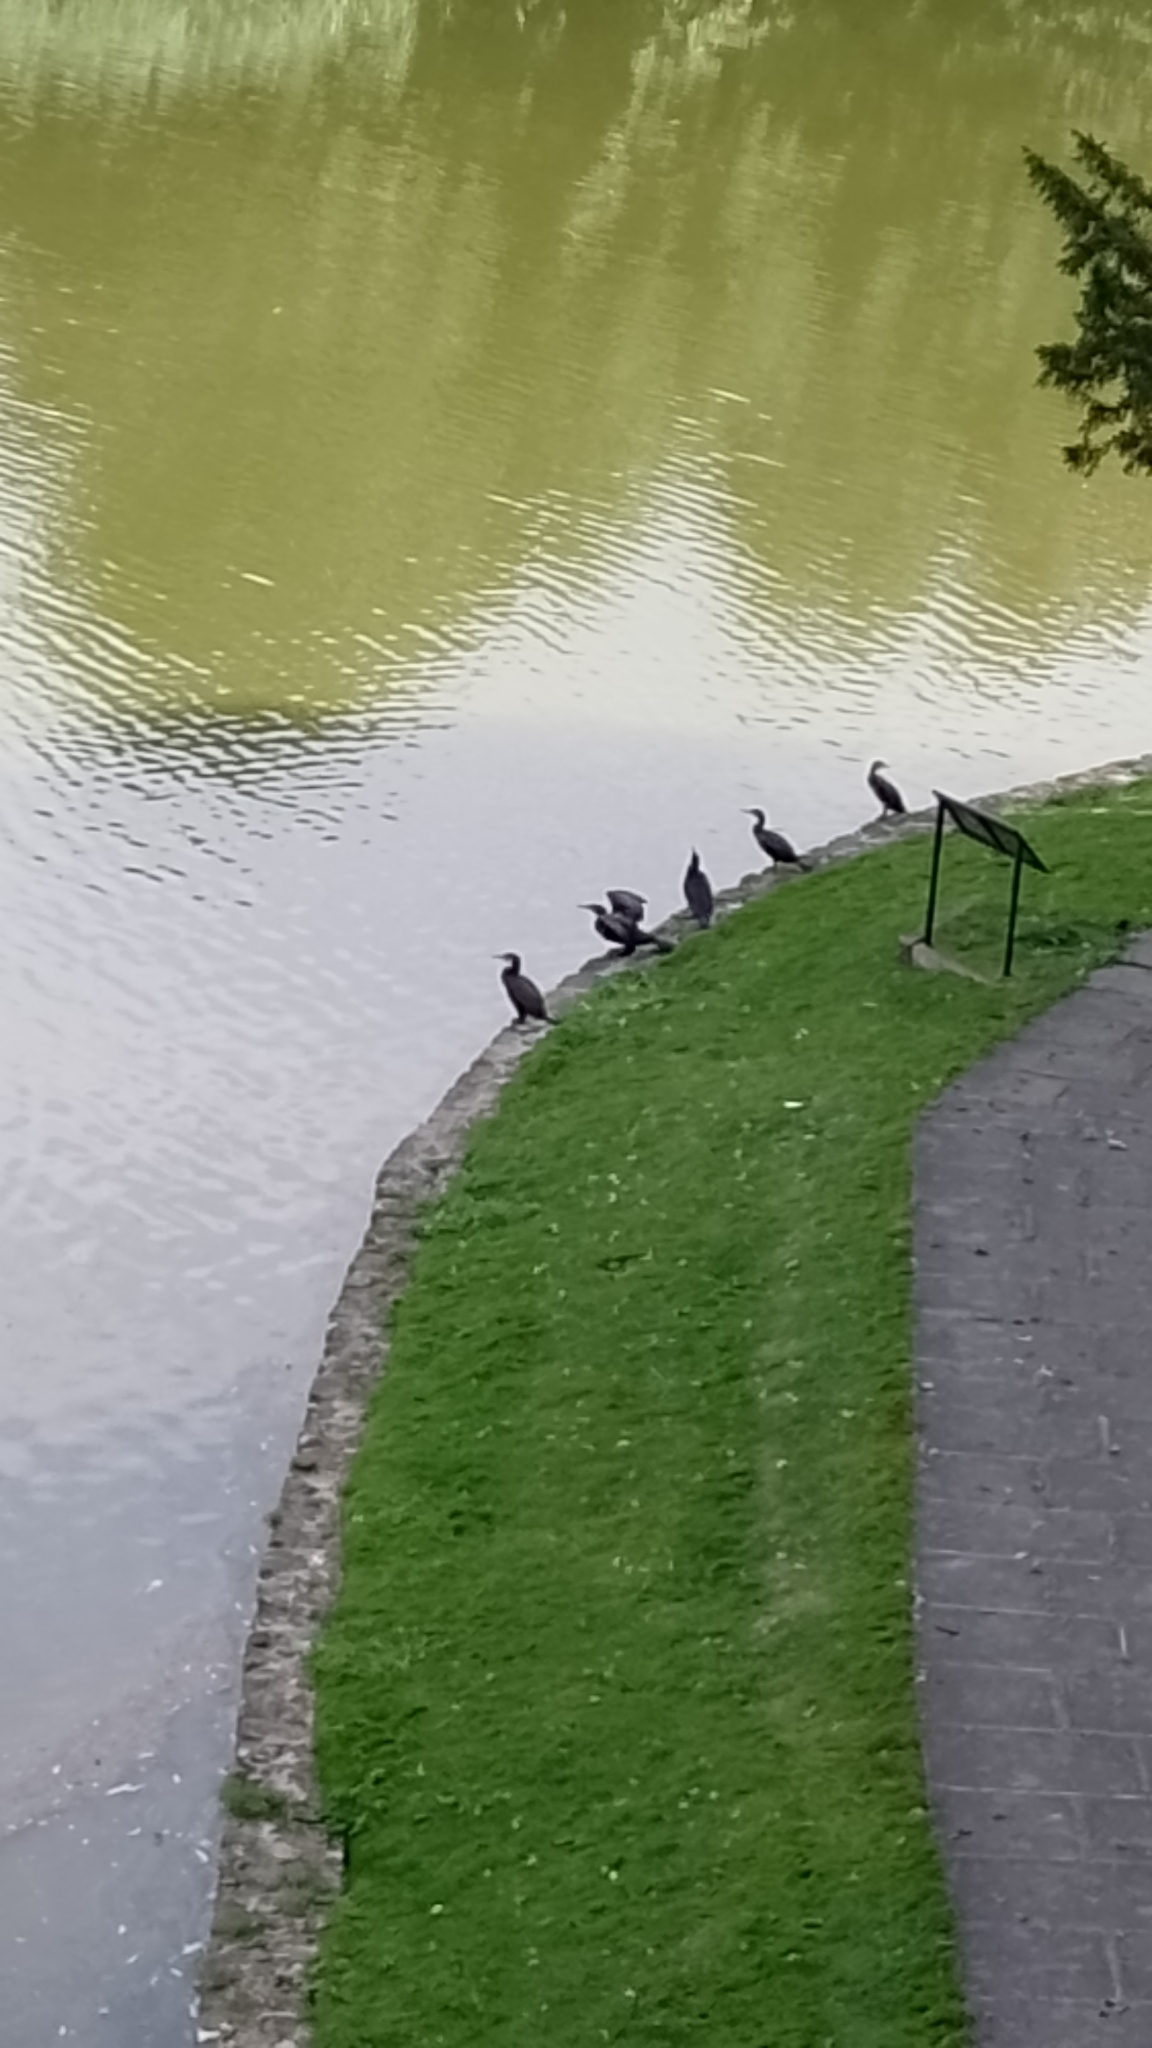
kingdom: Animalia
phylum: Chordata
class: Aves
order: Suliformes
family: Phalacrocoracidae
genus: Phalacrocorax
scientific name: Phalacrocorax carbo
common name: Great cormorant
